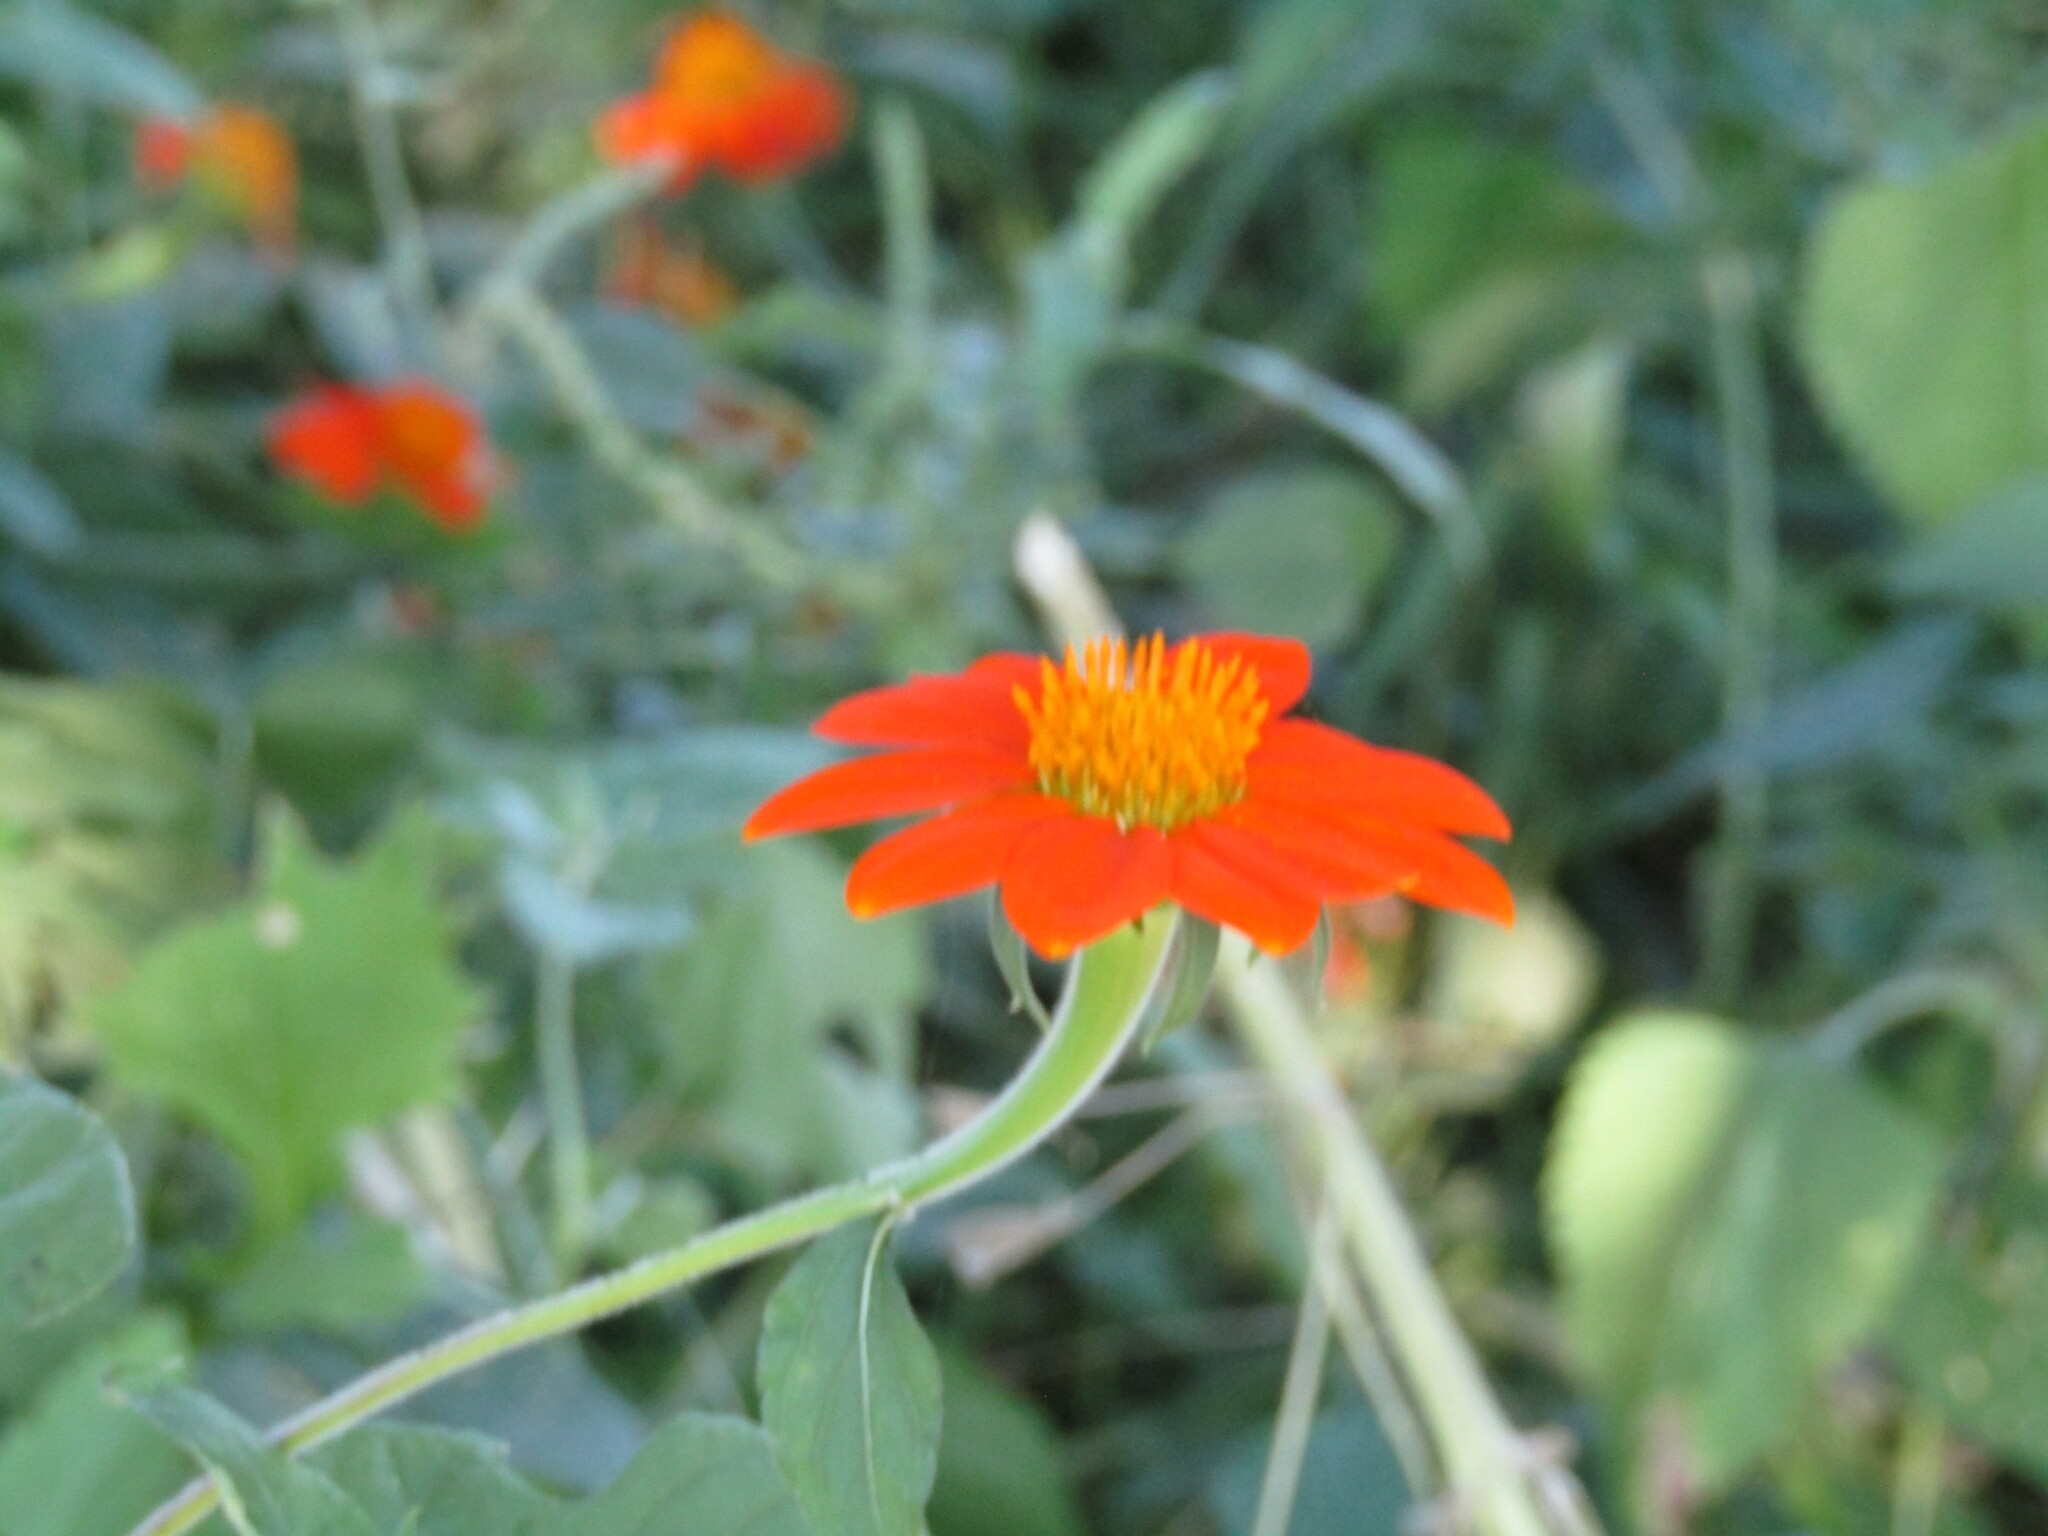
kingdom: Plantae
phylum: Tracheophyta
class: Magnoliopsida
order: Asterales
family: Asteraceae
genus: Tithonia
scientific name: Tithonia rotundifolia
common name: Sunflower
